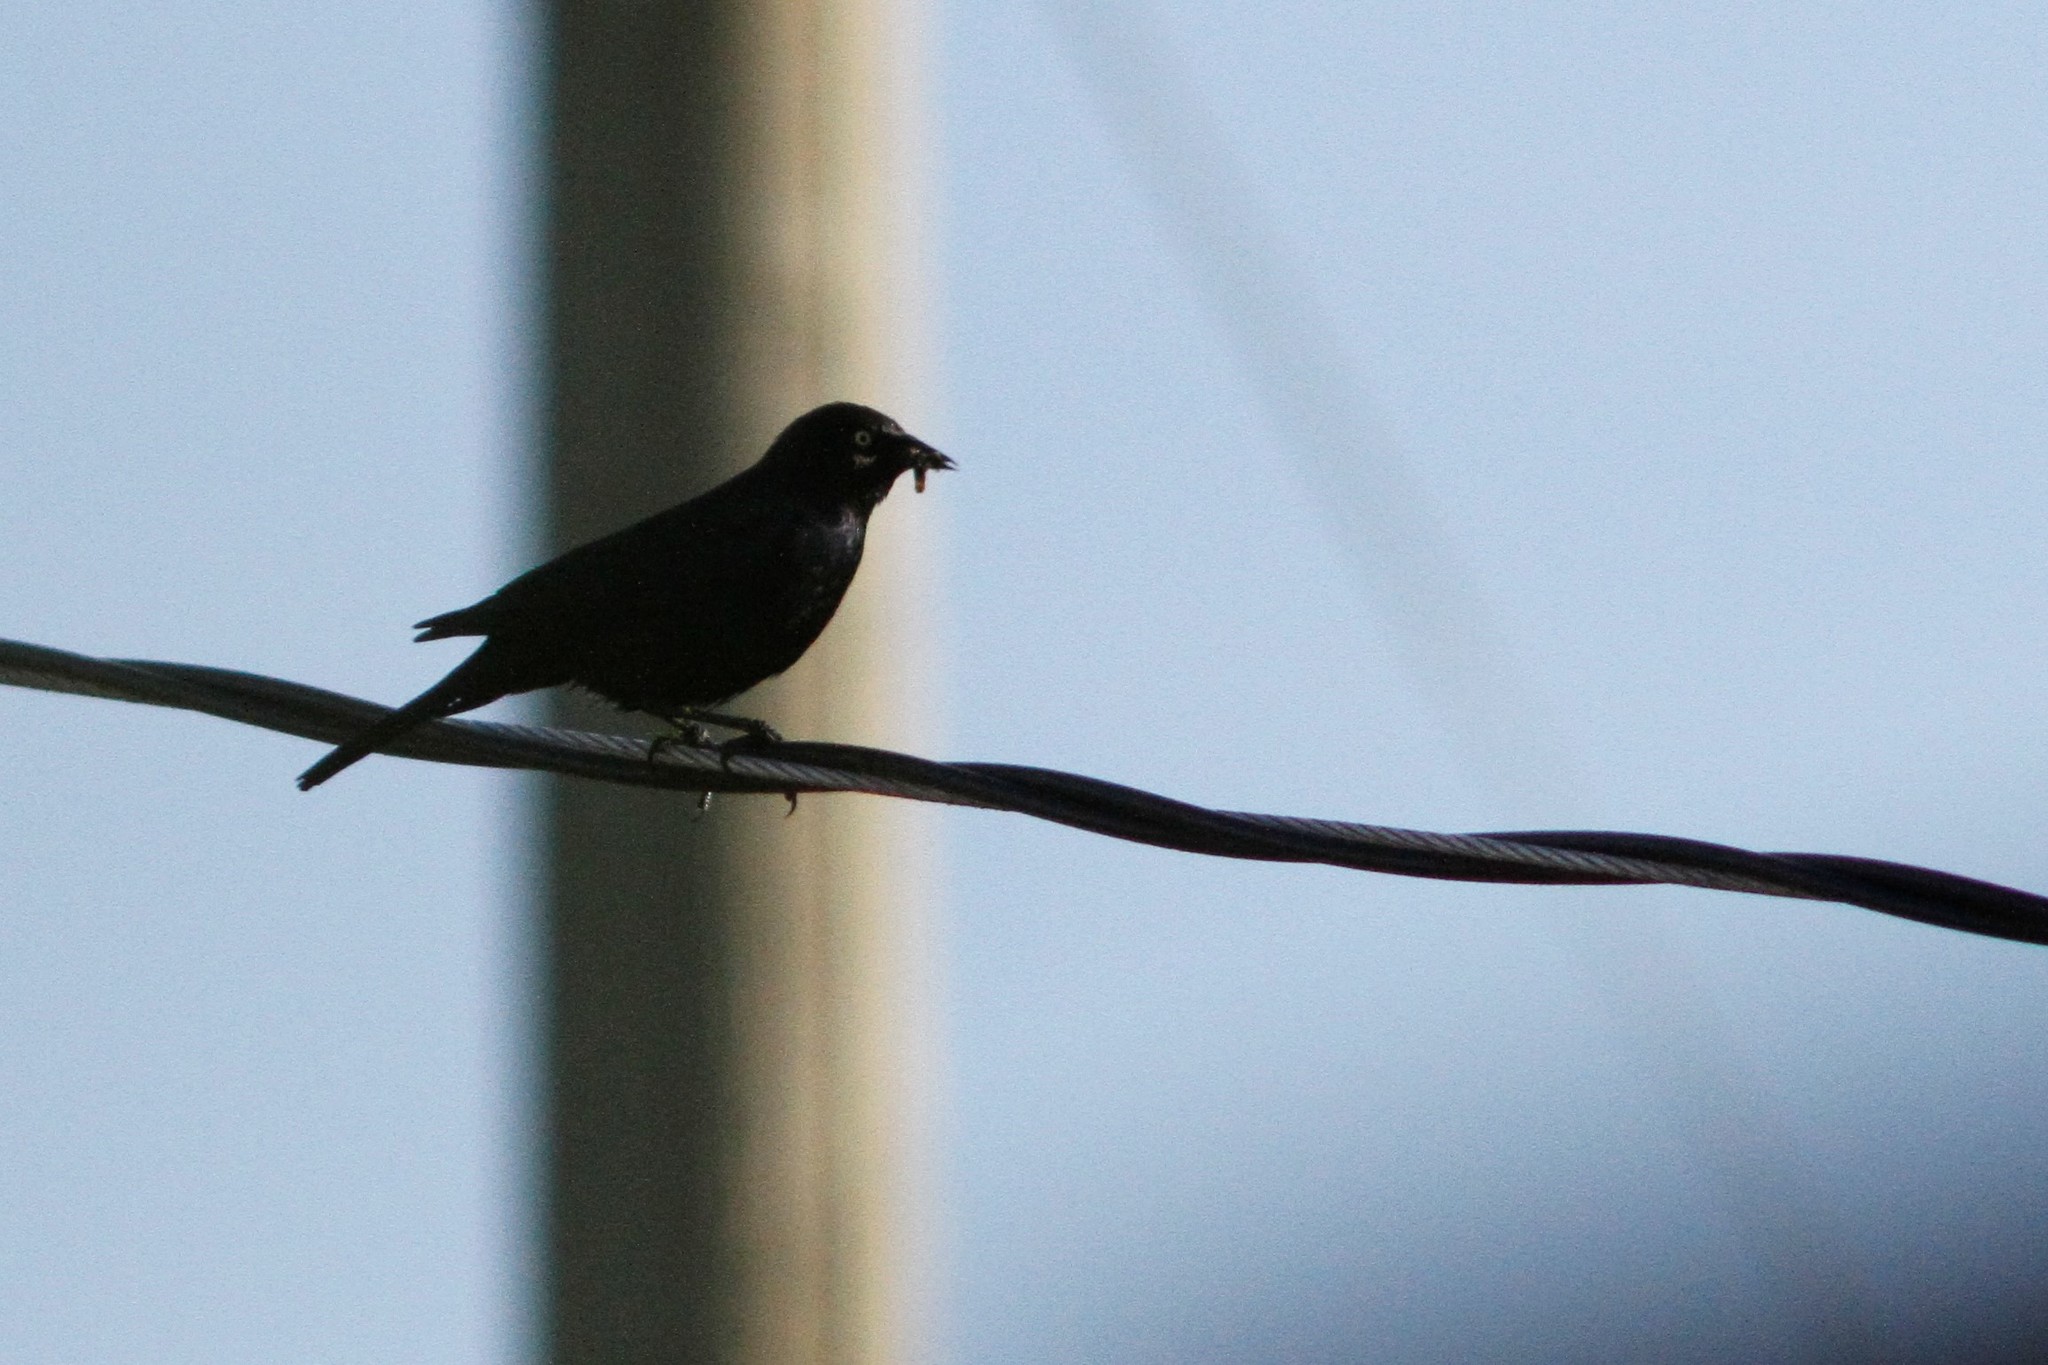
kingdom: Animalia
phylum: Chordata
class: Aves
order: Passeriformes
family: Icteridae
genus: Euphagus
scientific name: Euphagus cyanocephalus
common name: Brewer's blackbird
